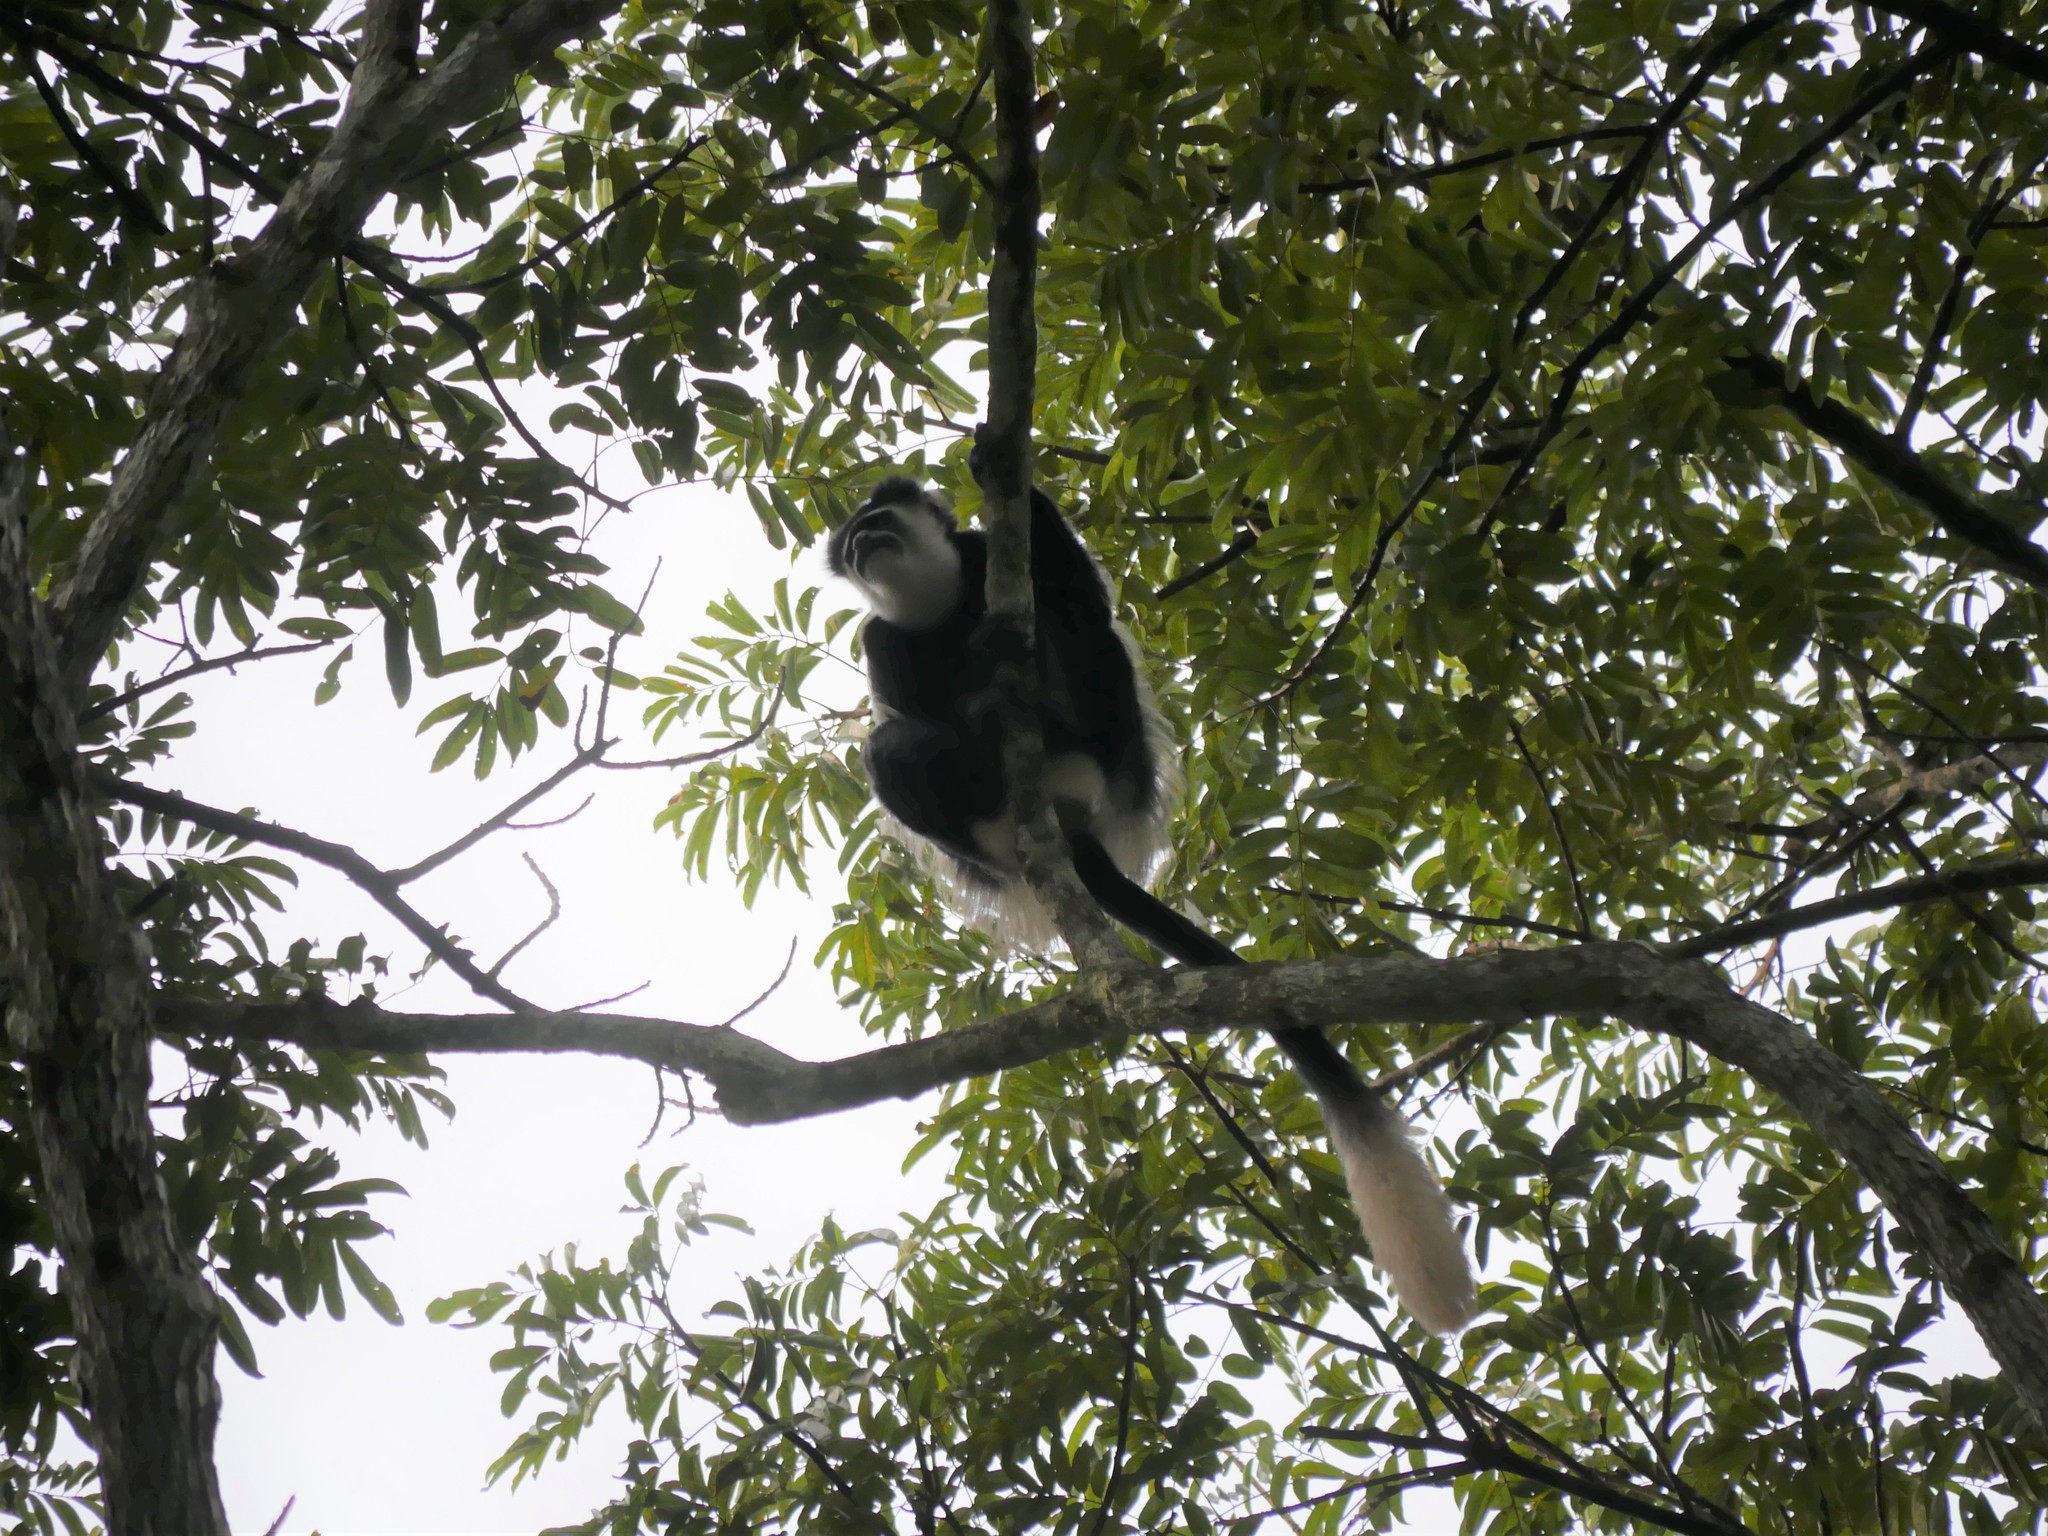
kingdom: Animalia
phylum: Chordata
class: Mammalia
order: Primates
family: Cercopithecidae
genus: Colobus
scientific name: Colobus guereza
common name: Mantled guereza
